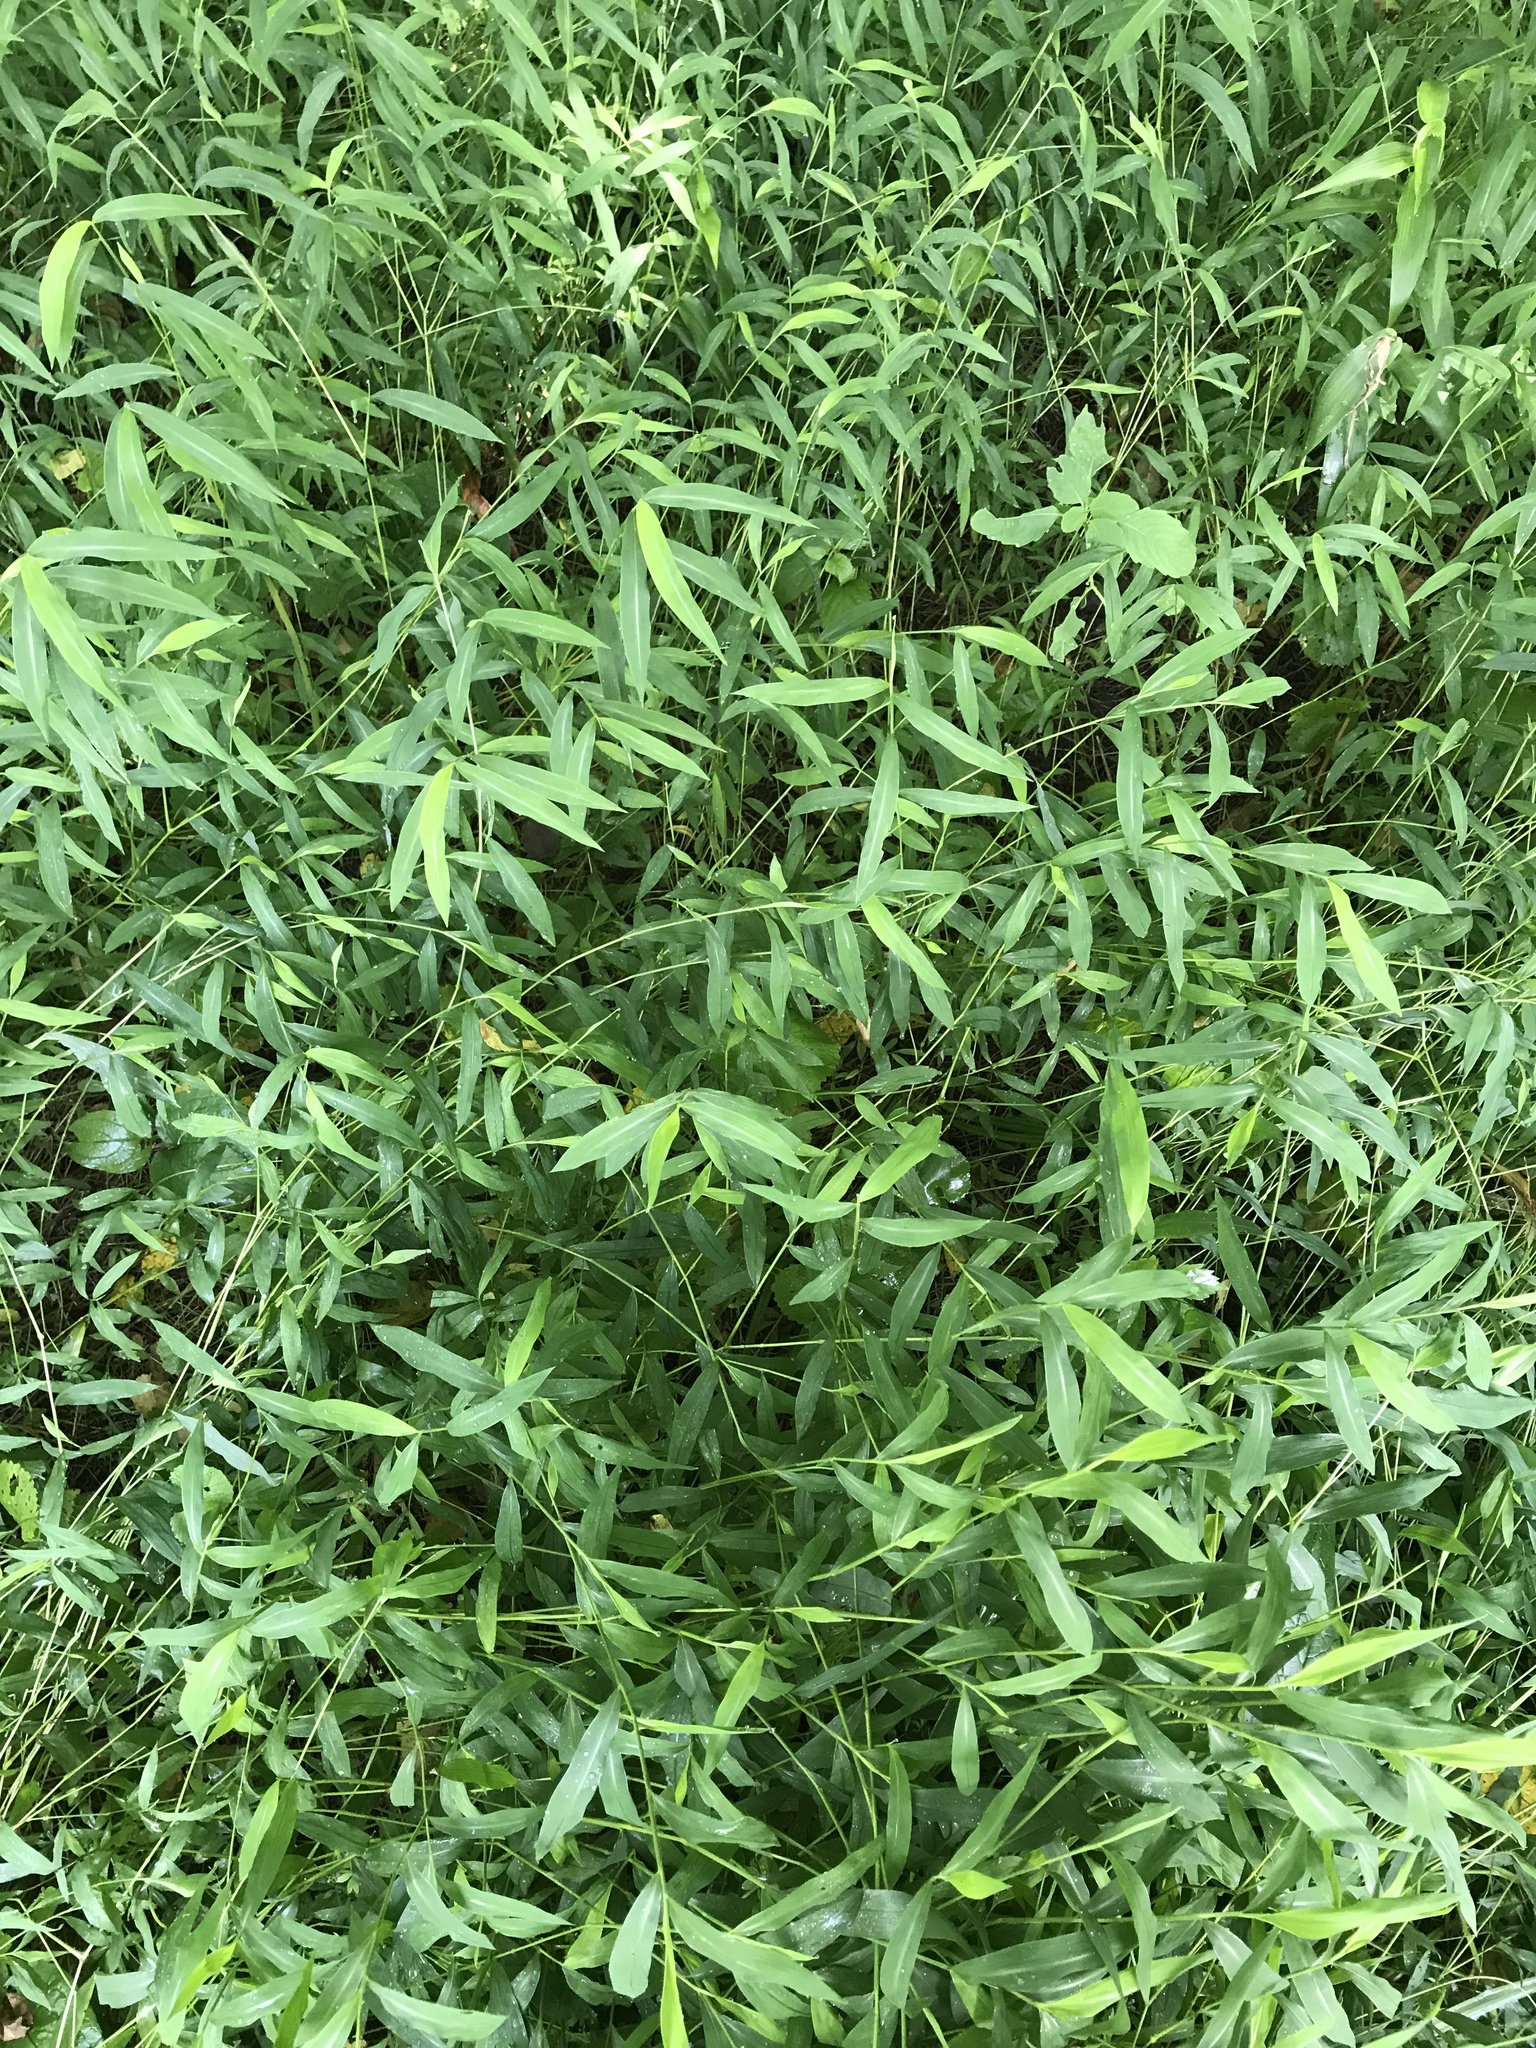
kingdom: Plantae
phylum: Tracheophyta
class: Liliopsida
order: Poales
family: Poaceae
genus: Microstegium
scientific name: Microstegium vimineum
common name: Japanese stiltgrass
